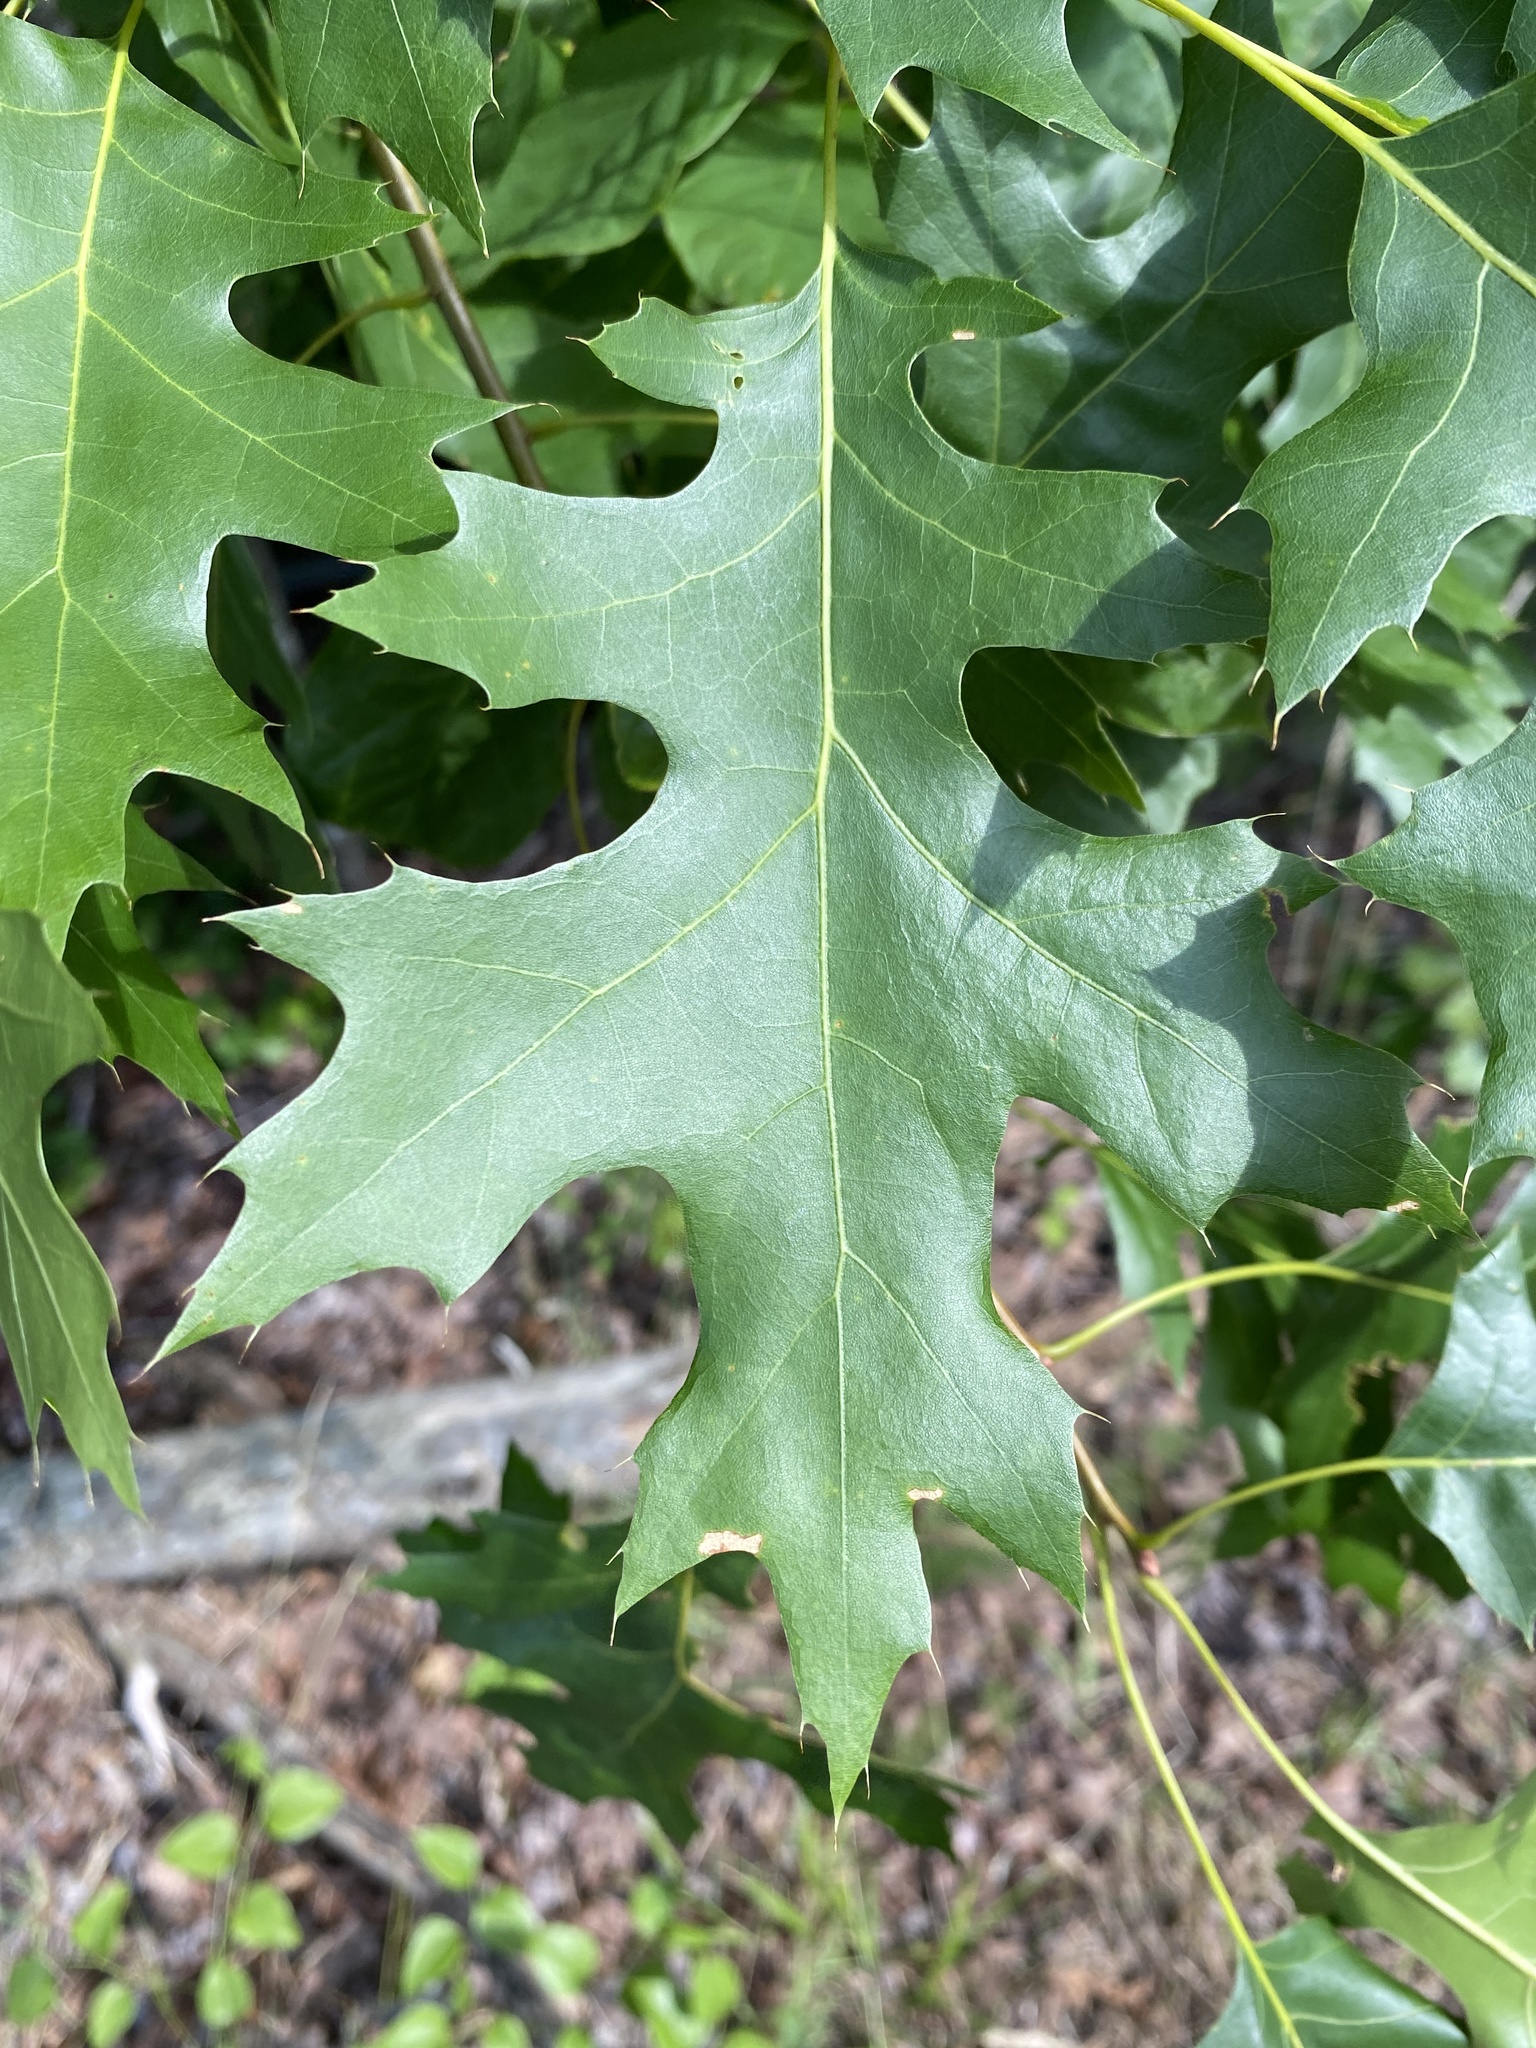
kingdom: Plantae
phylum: Tracheophyta
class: Magnoliopsida
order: Fagales
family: Fagaceae
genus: Quercus
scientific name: Quercus coccinea
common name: Scarlet oak
